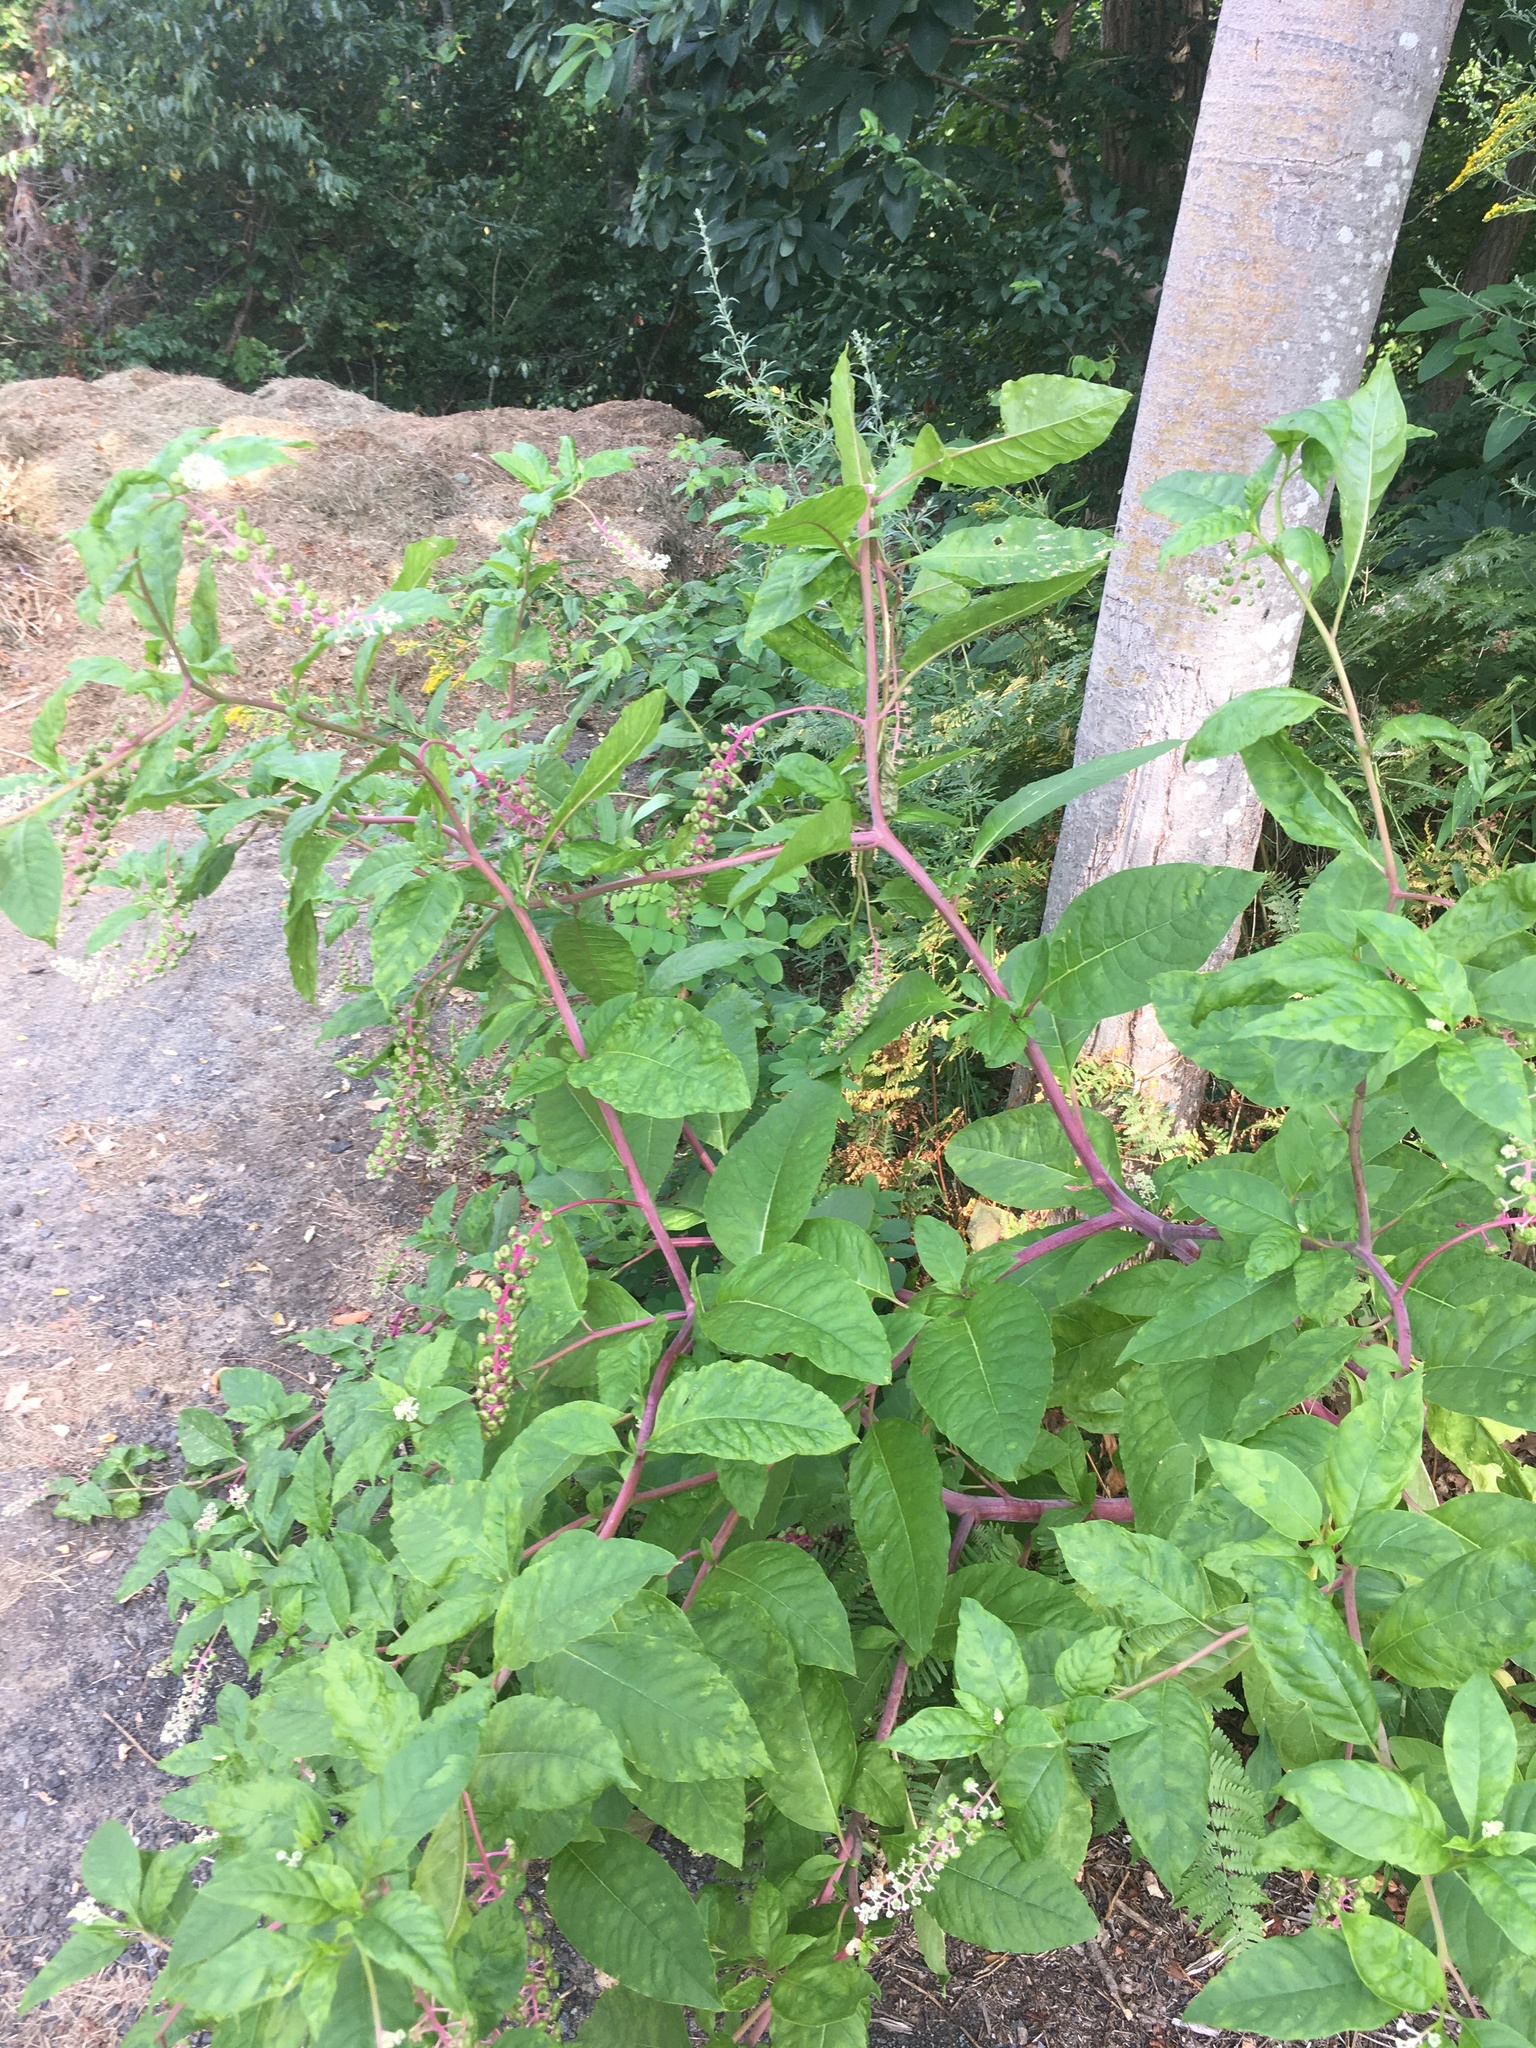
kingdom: Plantae
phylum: Tracheophyta
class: Magnoliopsida
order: Caryophyllales
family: Phytolaccaceae
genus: Phytolacca
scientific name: Phytolacca americana
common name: American pokeweed
